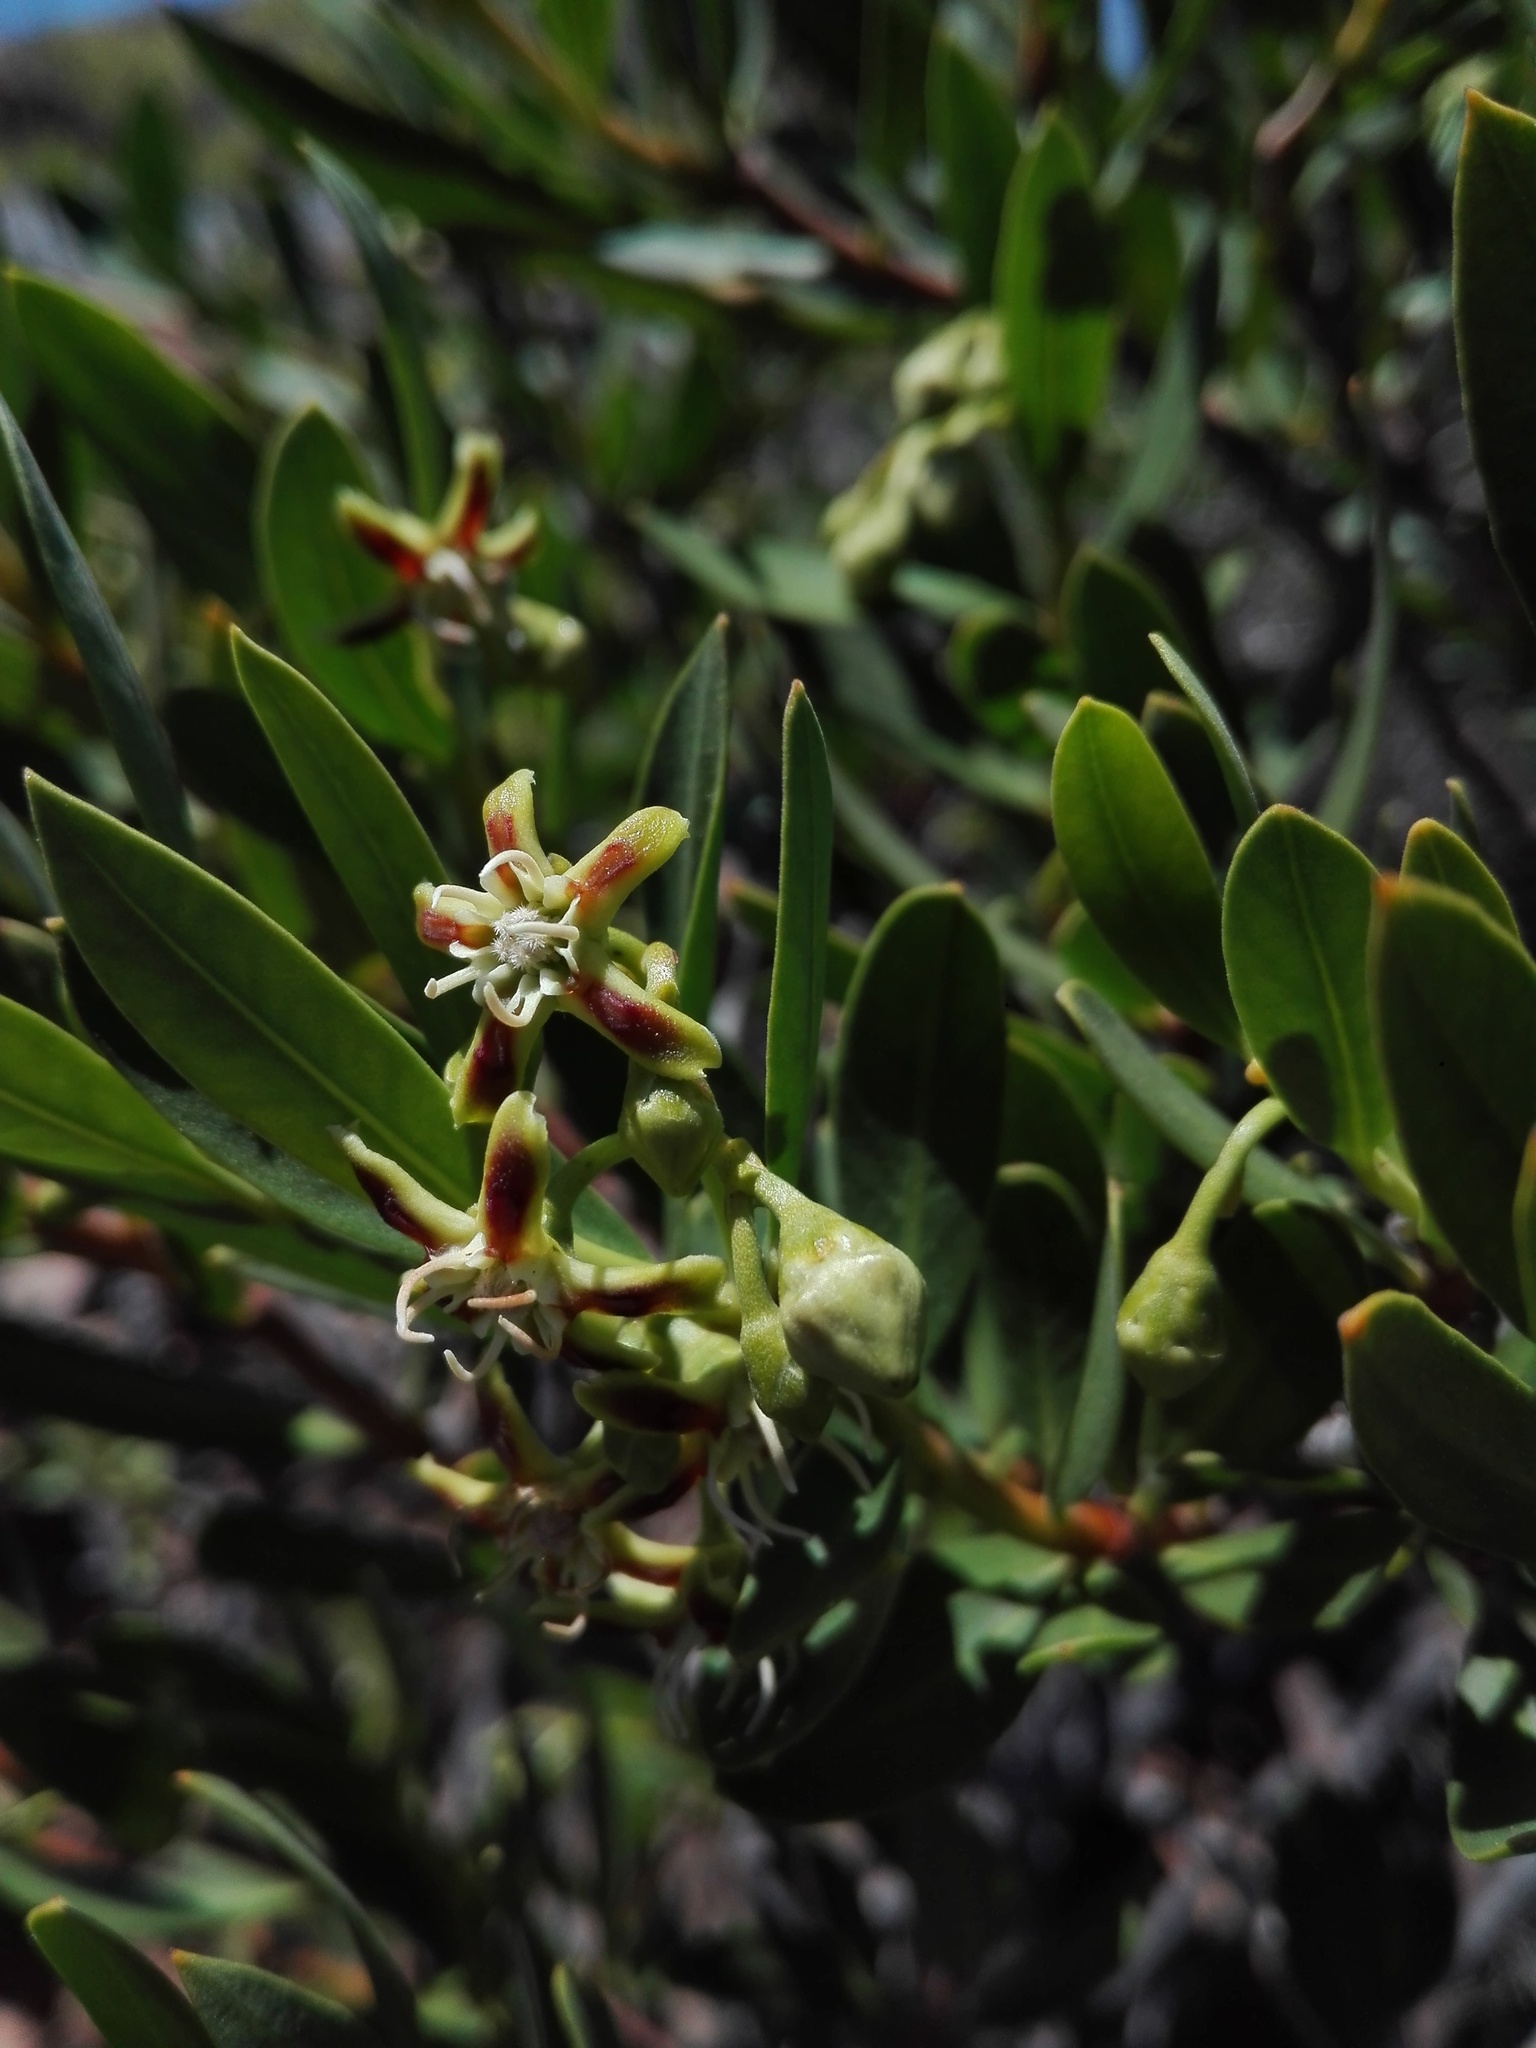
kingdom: Plantae
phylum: Tracheophyta
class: Magnoliopsida
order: Gentianales
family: Apocynaceae
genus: Periploca
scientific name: Periploca laevigata
